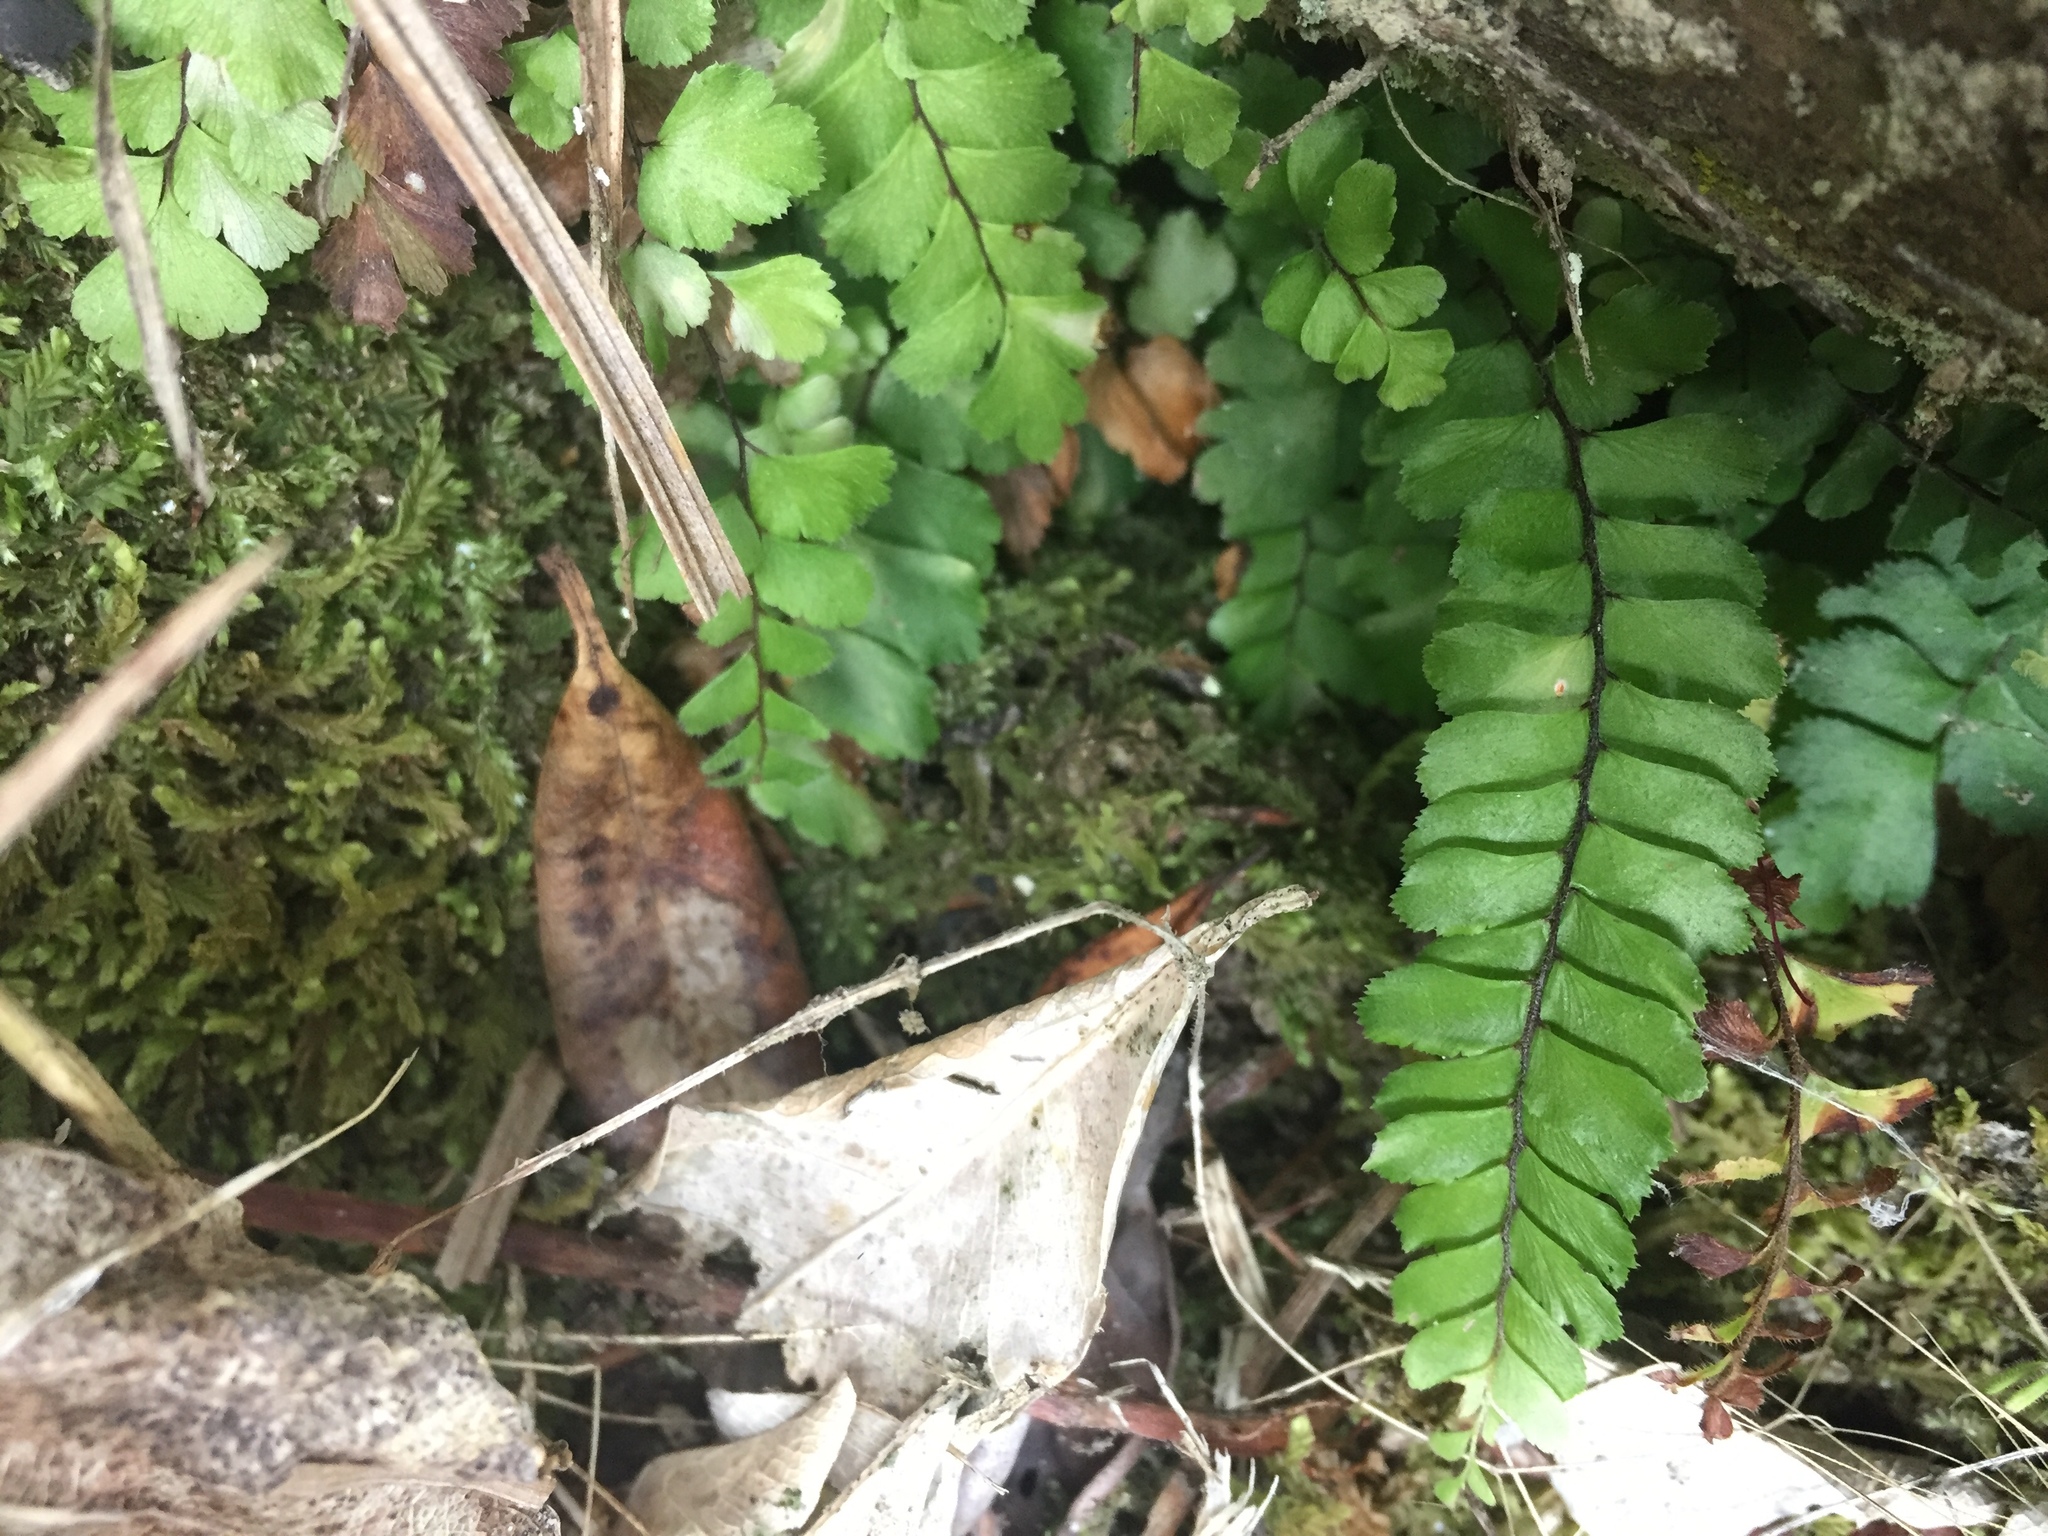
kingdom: Plantae
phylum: Tracheophyta
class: Polypodiopsida
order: Polypodiales
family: Pteridaceae
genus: Adiantum
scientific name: Adiantum cunninghamii
